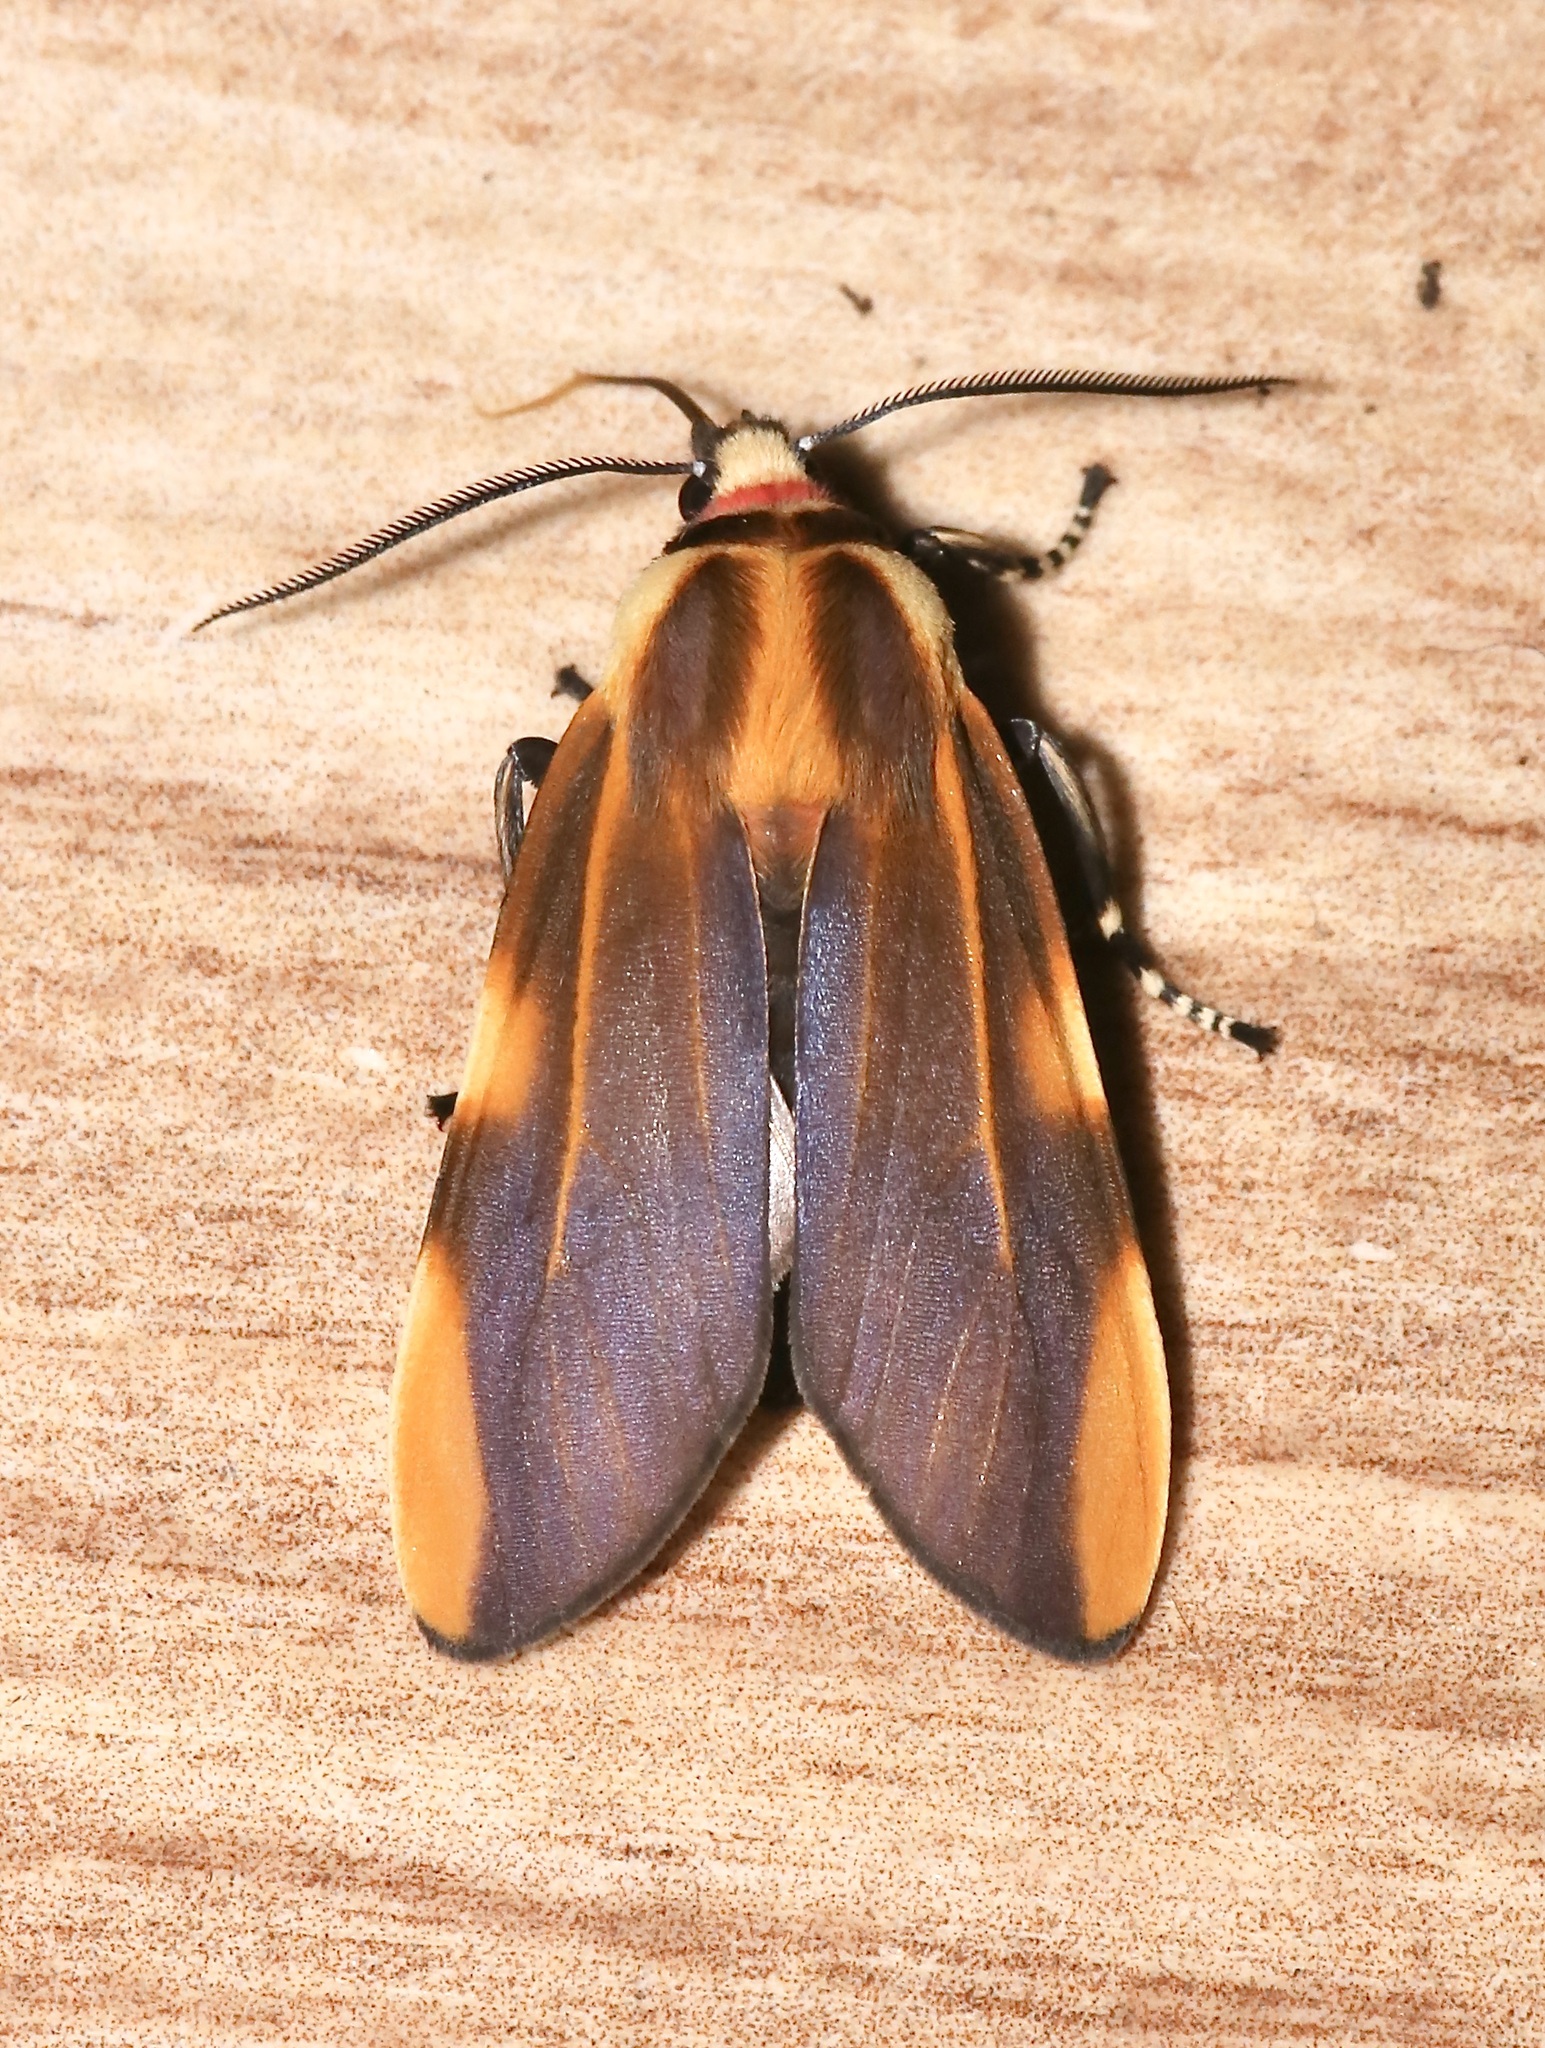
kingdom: Animalia
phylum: Arthropoda
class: Insecta
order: Lepidoptera
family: Erebidae
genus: Aemilia
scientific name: Aemilia crassa
